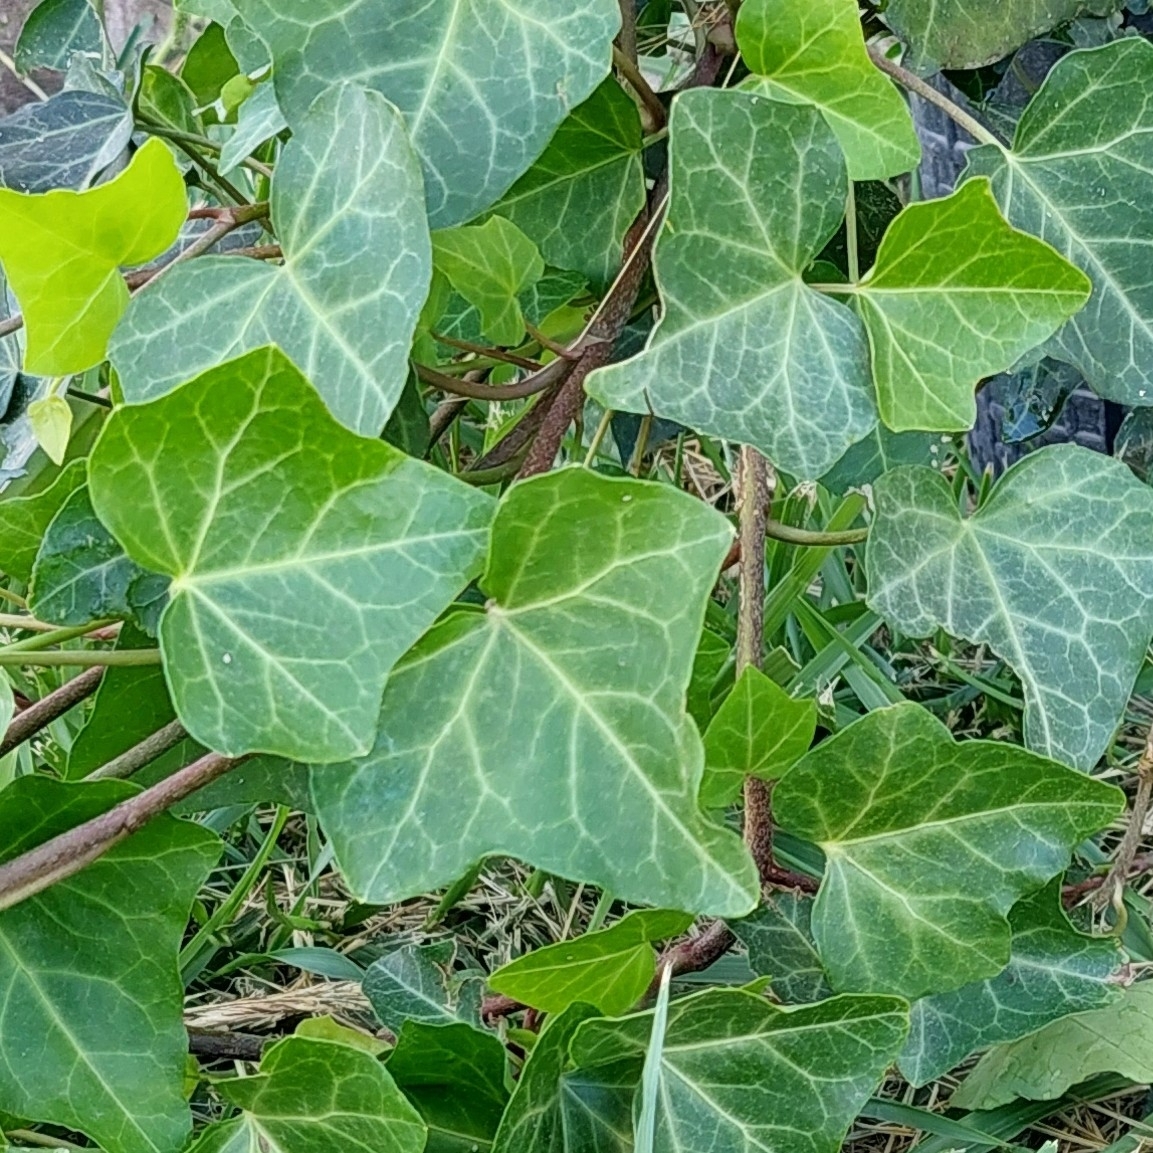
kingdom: Plantae
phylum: Tracheophyta
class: Magnoliopsida
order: Apiales
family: Araliaceae
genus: Hedera
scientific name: Hedera helix
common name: Ivy
